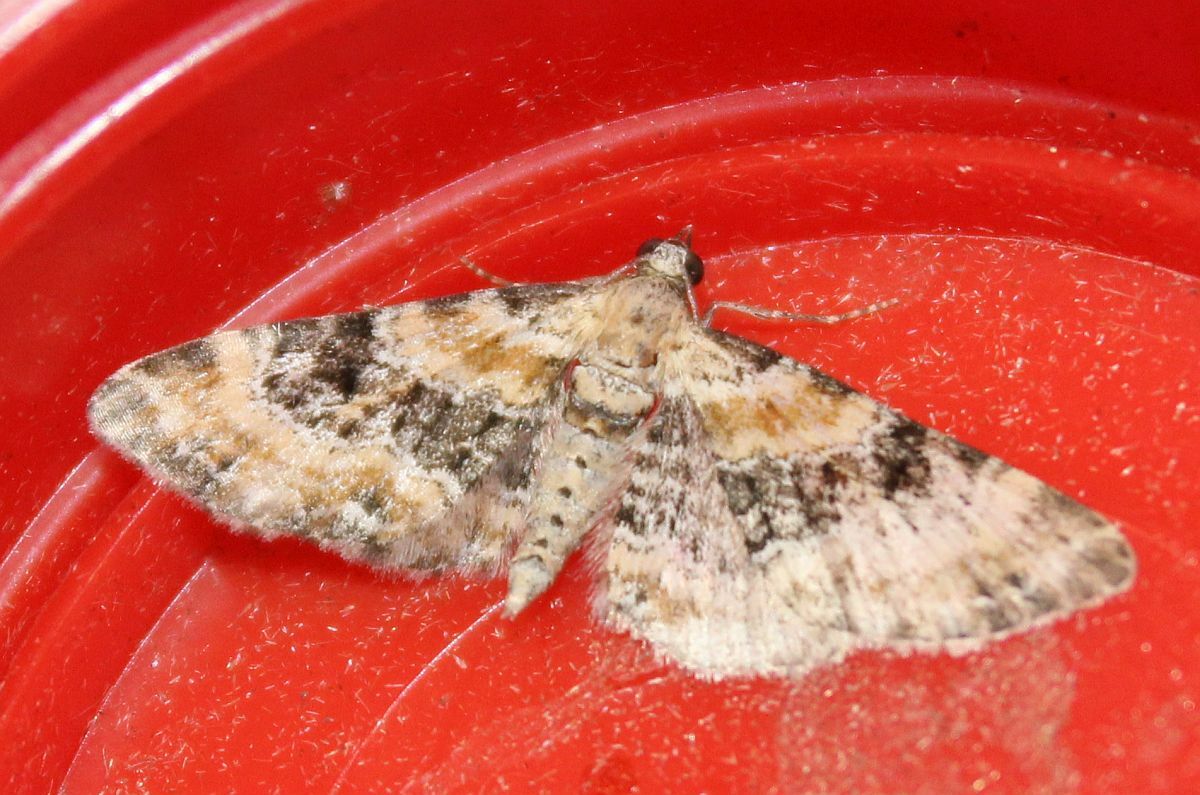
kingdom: Animalia
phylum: Arthropoda
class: Insecta
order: Lepidoptera
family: Geometridae
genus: Eupithecia
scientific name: Eupithecia pulchellata
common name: Foxglove pug
